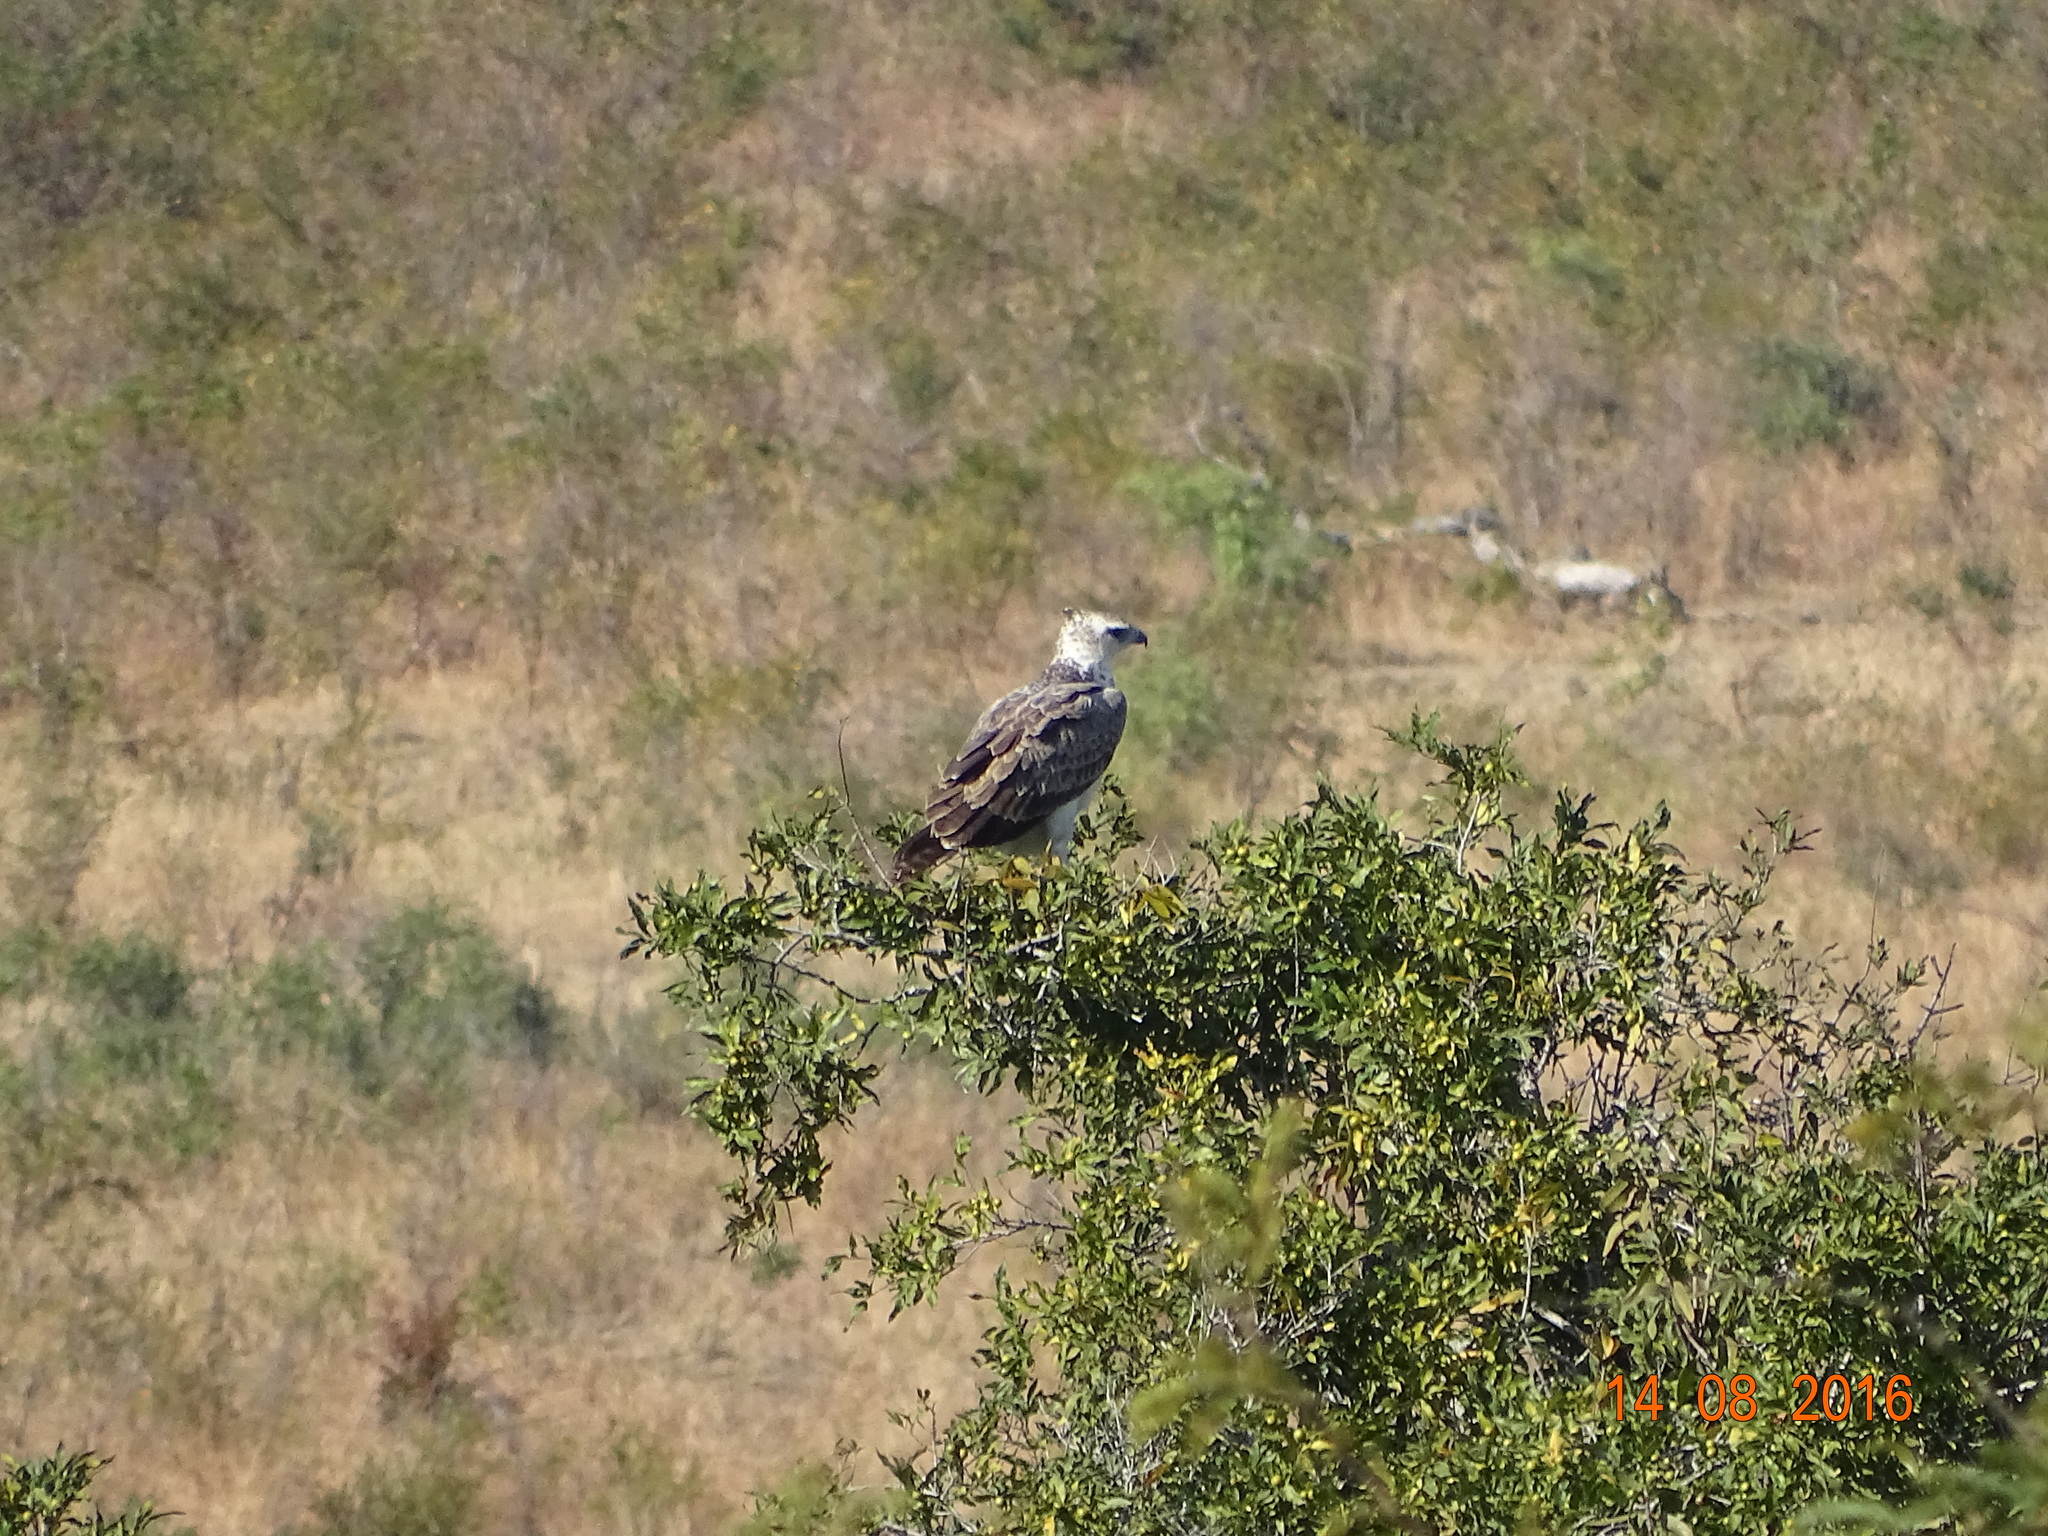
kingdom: Animalia
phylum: Chordata
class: Aves
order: Accipitriformes
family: Accipitridae
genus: Polemaetus
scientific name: Polemaetus bellicosus
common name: Martial eagle
